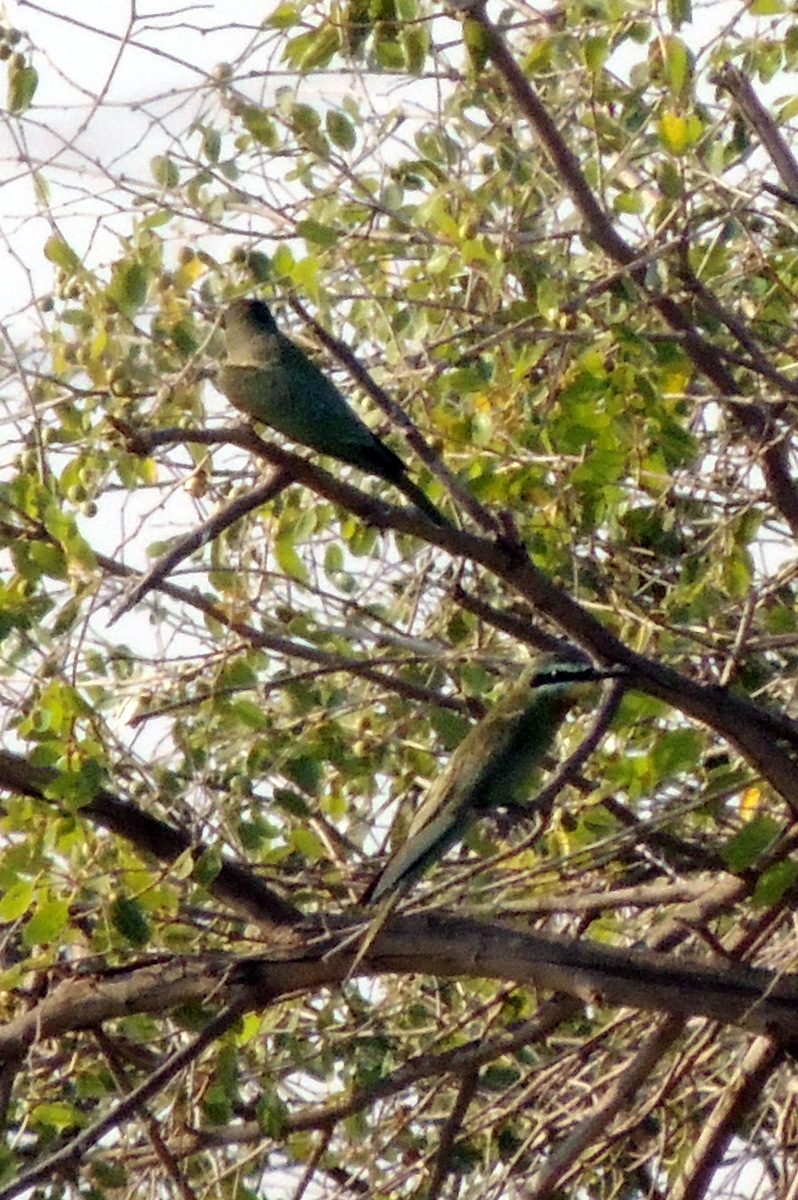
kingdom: Animalia
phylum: Chordata
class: Aves
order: Coraciiformes
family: Meropidae
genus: Merops
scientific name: Merops persicus
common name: Blue-cheeked bee-eater
